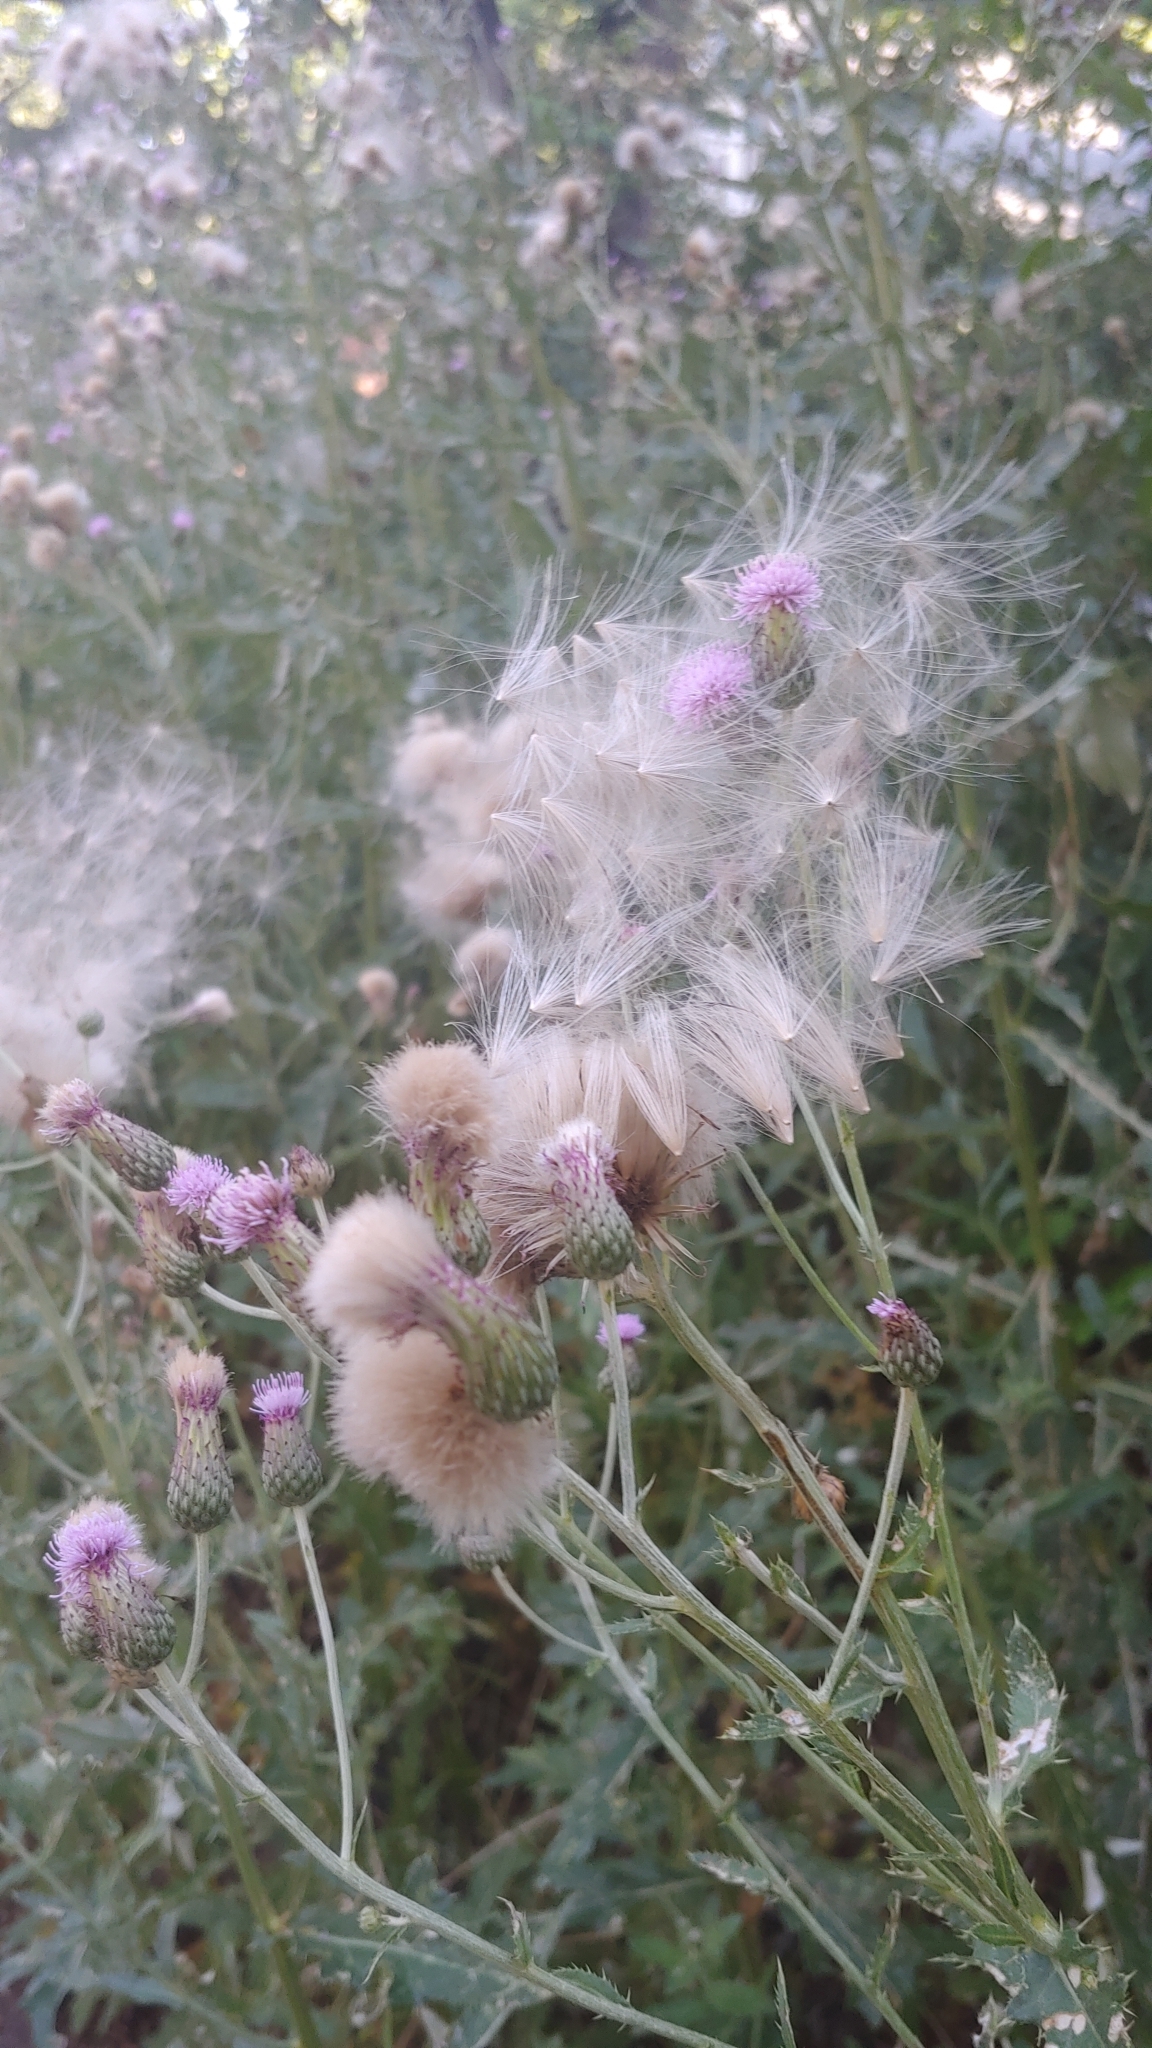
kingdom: Plantae
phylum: Tracheophyta
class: Magnoliopsida
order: Asterales
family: Asteraceae
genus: Cirsium
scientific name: Cirsium arvense
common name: Creeping thistle
